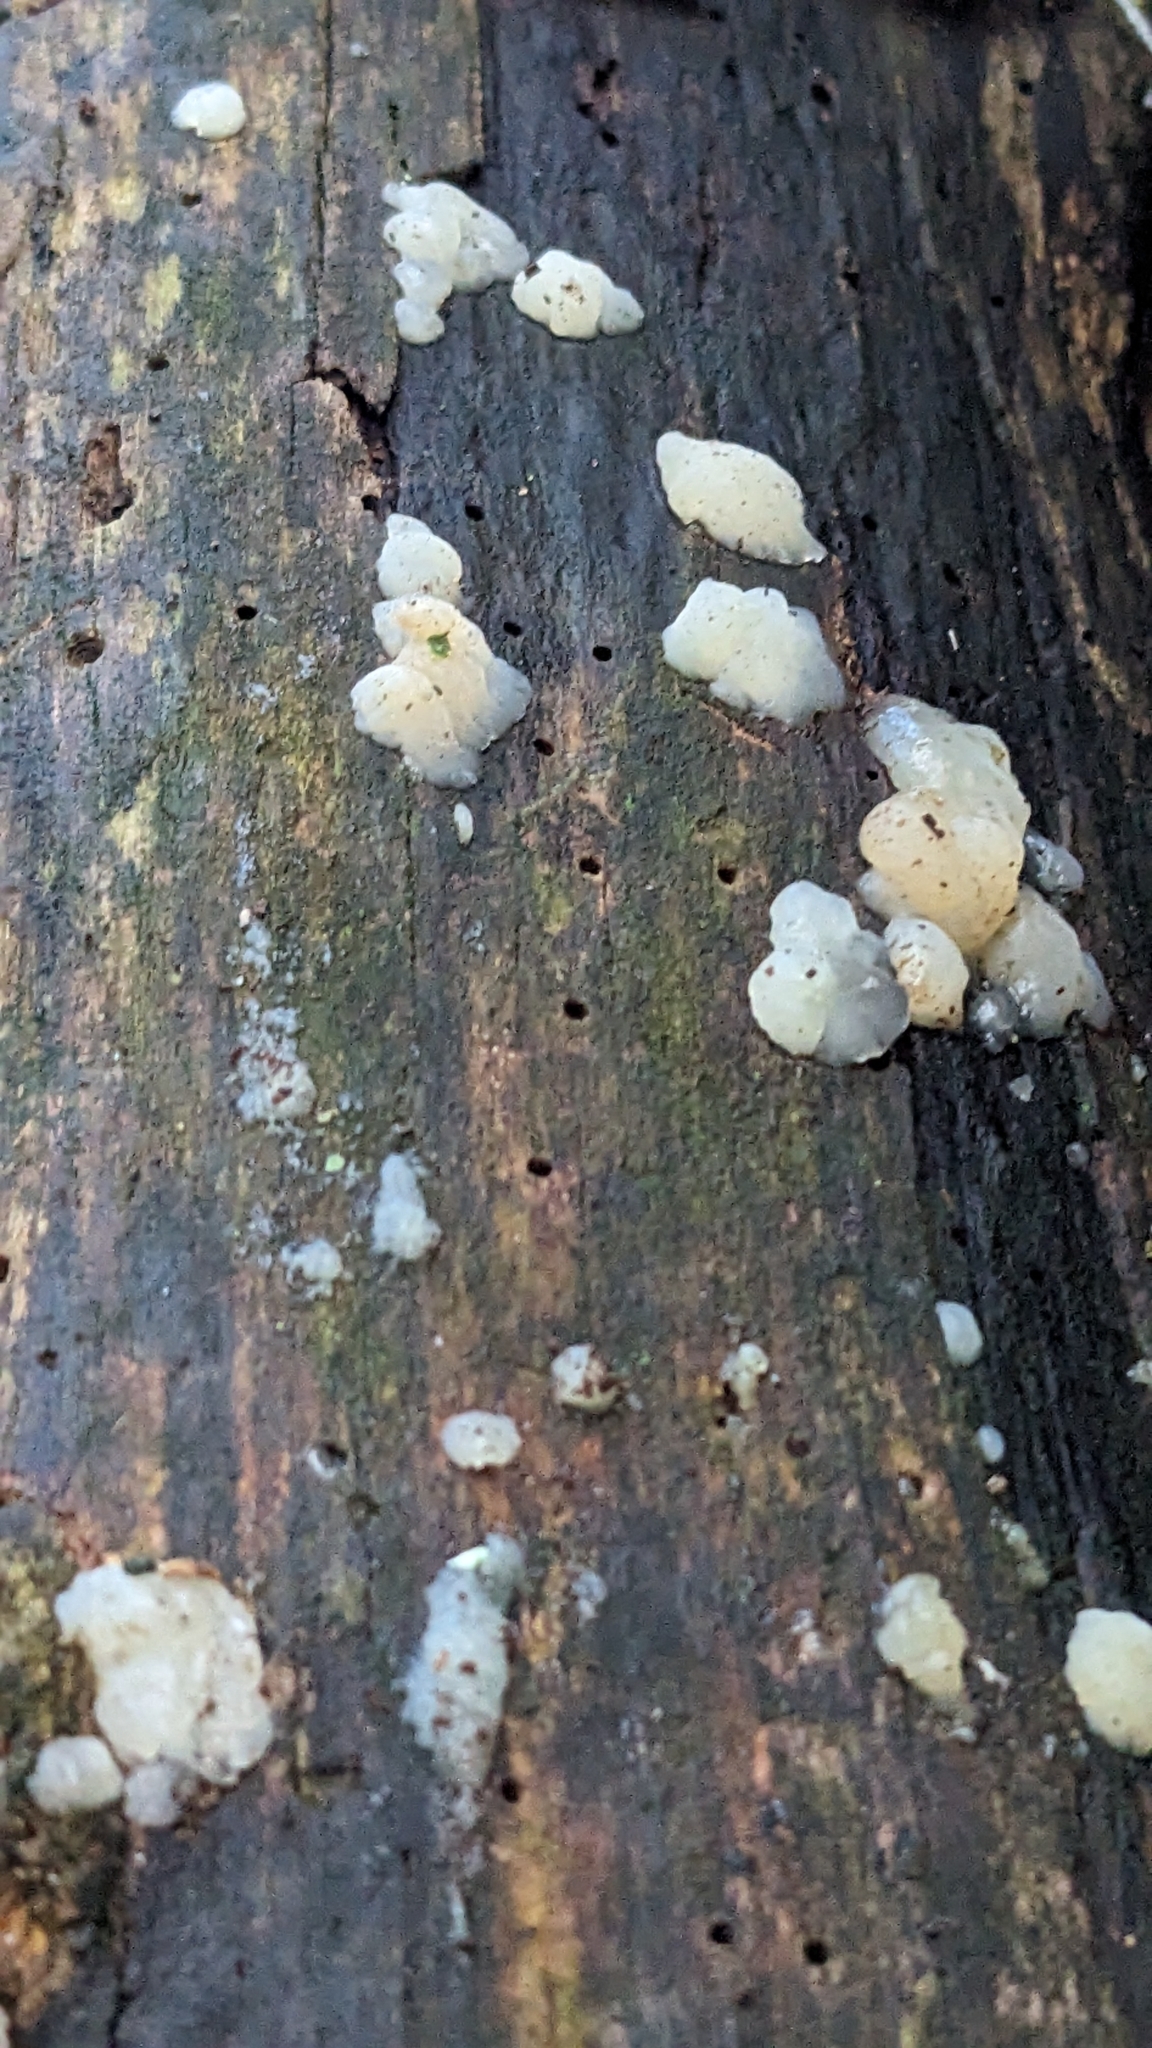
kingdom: Fungi
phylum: Basidiomycota
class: Agaricomycetes
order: Auriculariales
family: Hyaloriaceae
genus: Myxarium
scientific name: Myxarium nucleatum
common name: Crystal brain fungus
